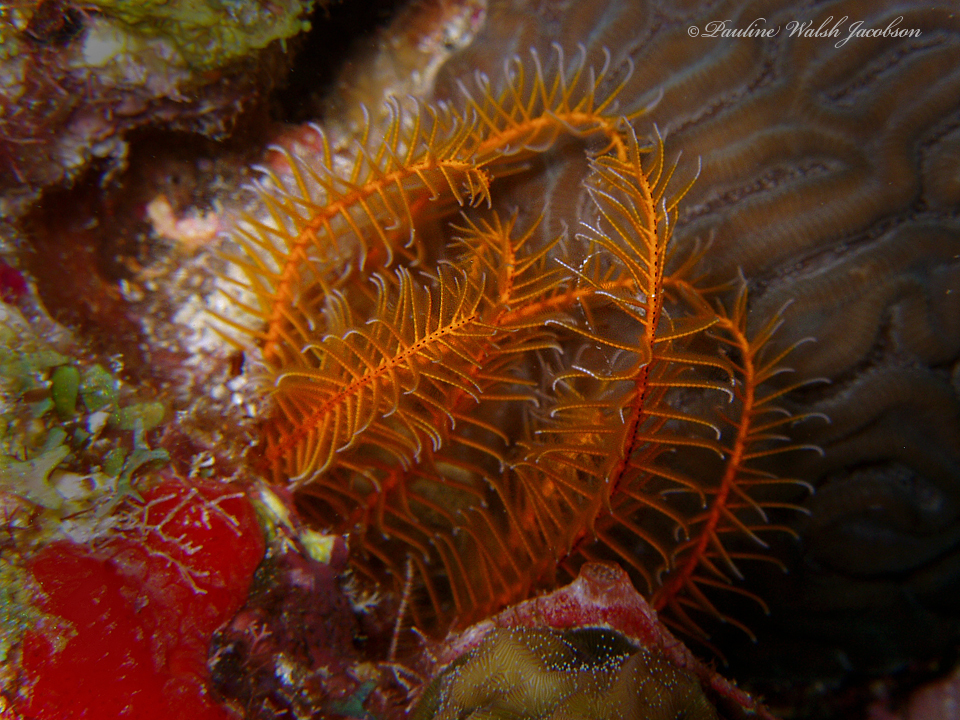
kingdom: Animalia
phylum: Echinodermata
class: Crinoidea
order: Comatulida
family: Comatulidae
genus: Davidaster
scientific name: Davidaster rubiginosus
